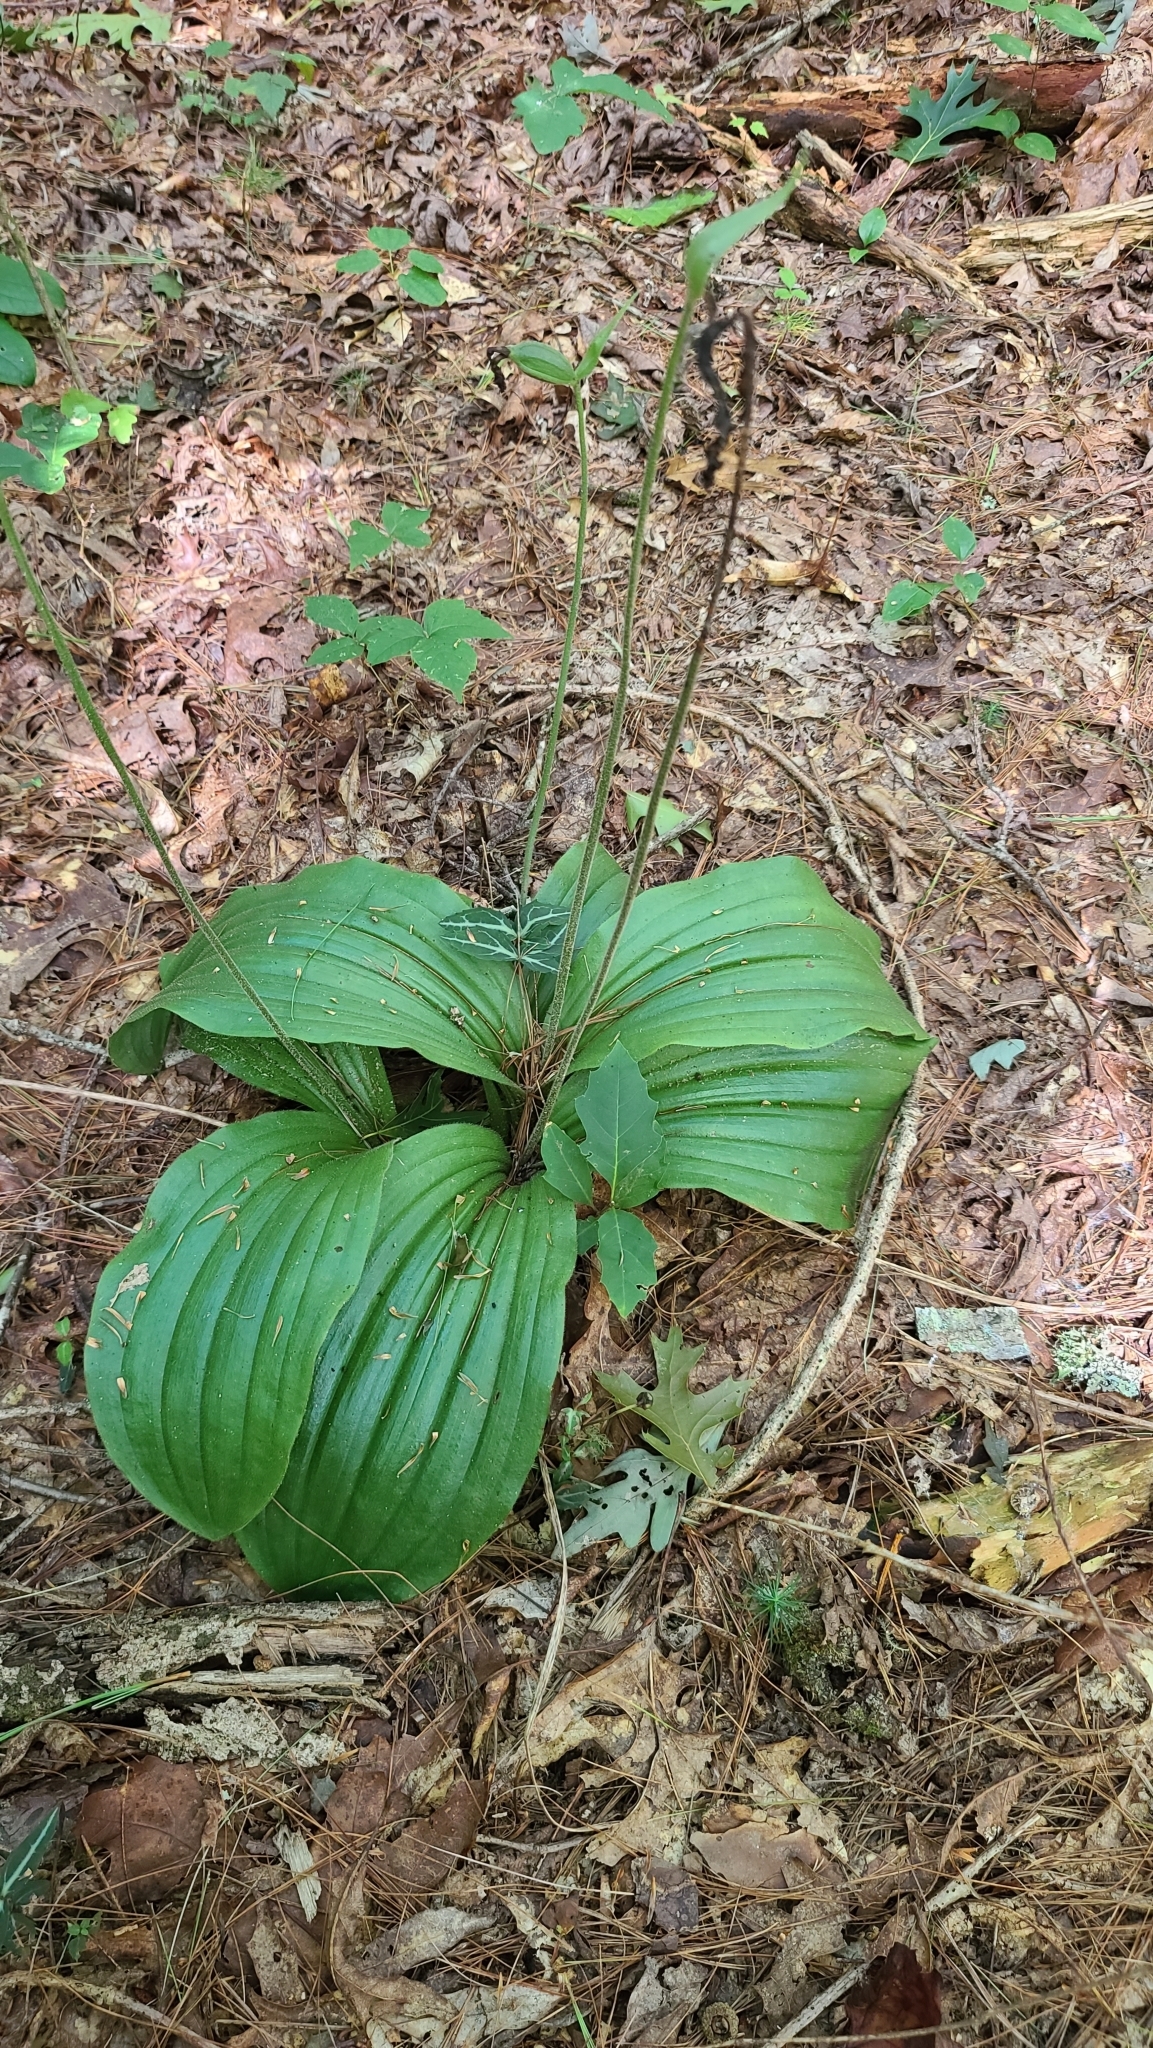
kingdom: Plantae
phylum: Tracheophyta
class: Liliopsida
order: Asparagales
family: Orchidaceae
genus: Cypripedium
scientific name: Cypripedium acaule
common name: Pink lady's-slipper
